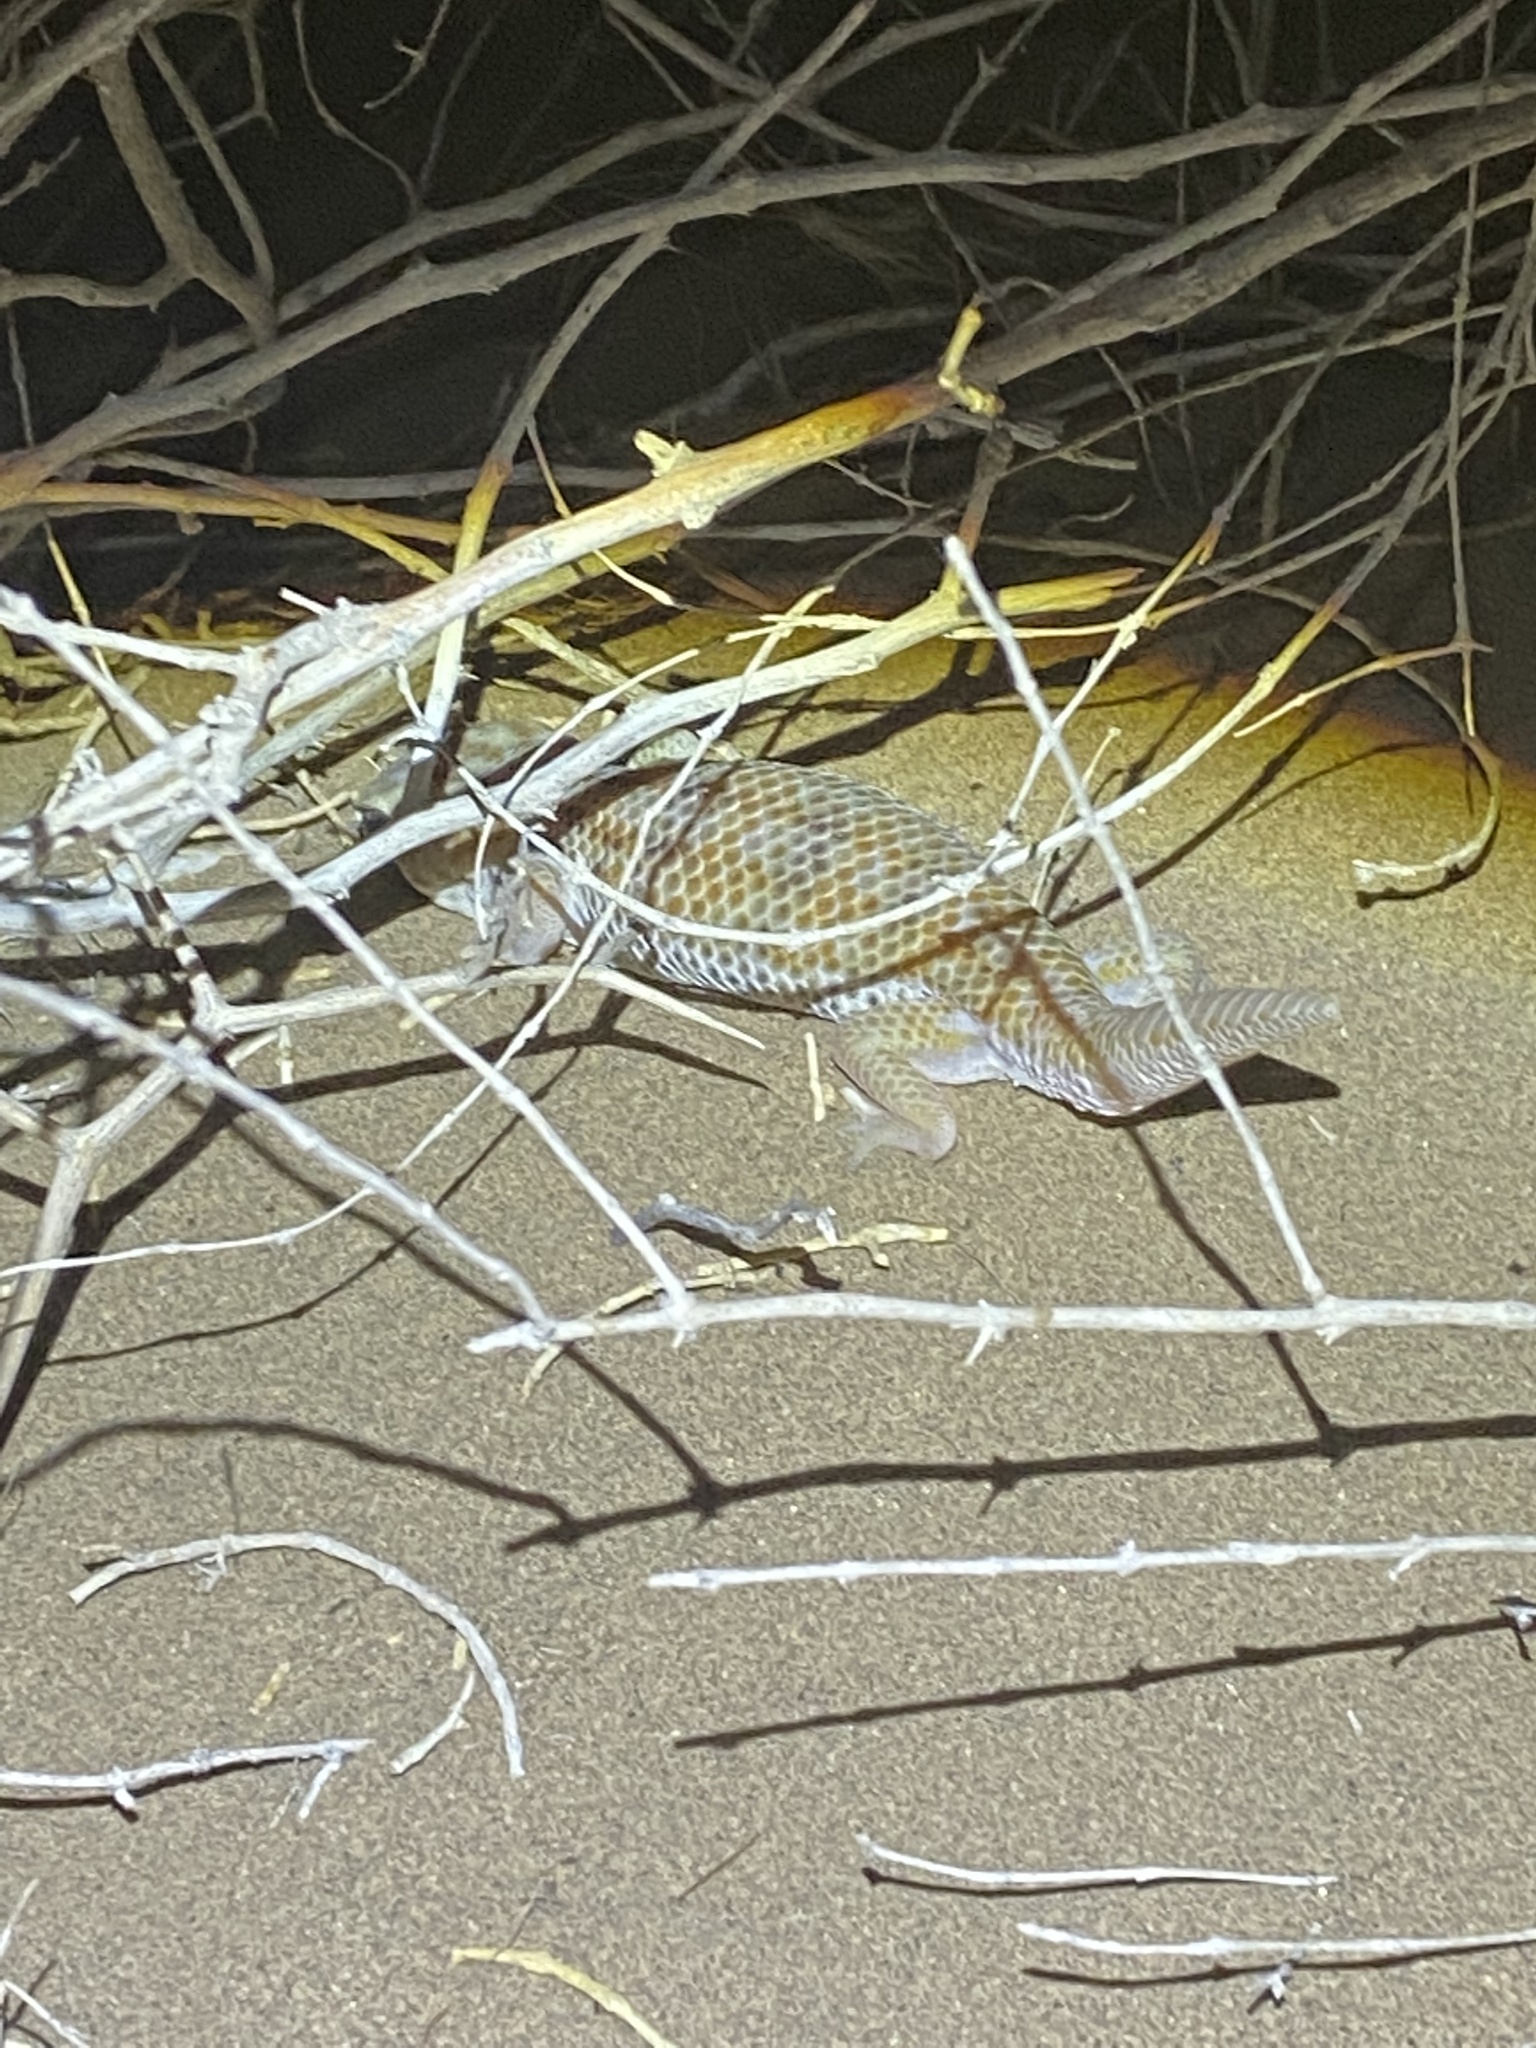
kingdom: Animalia
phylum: Chordata
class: Squamata
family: Sphaerodactylidae
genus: Teratoscincus
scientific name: Teratoscincus keyserlingii
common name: Frog-eyed gecko
